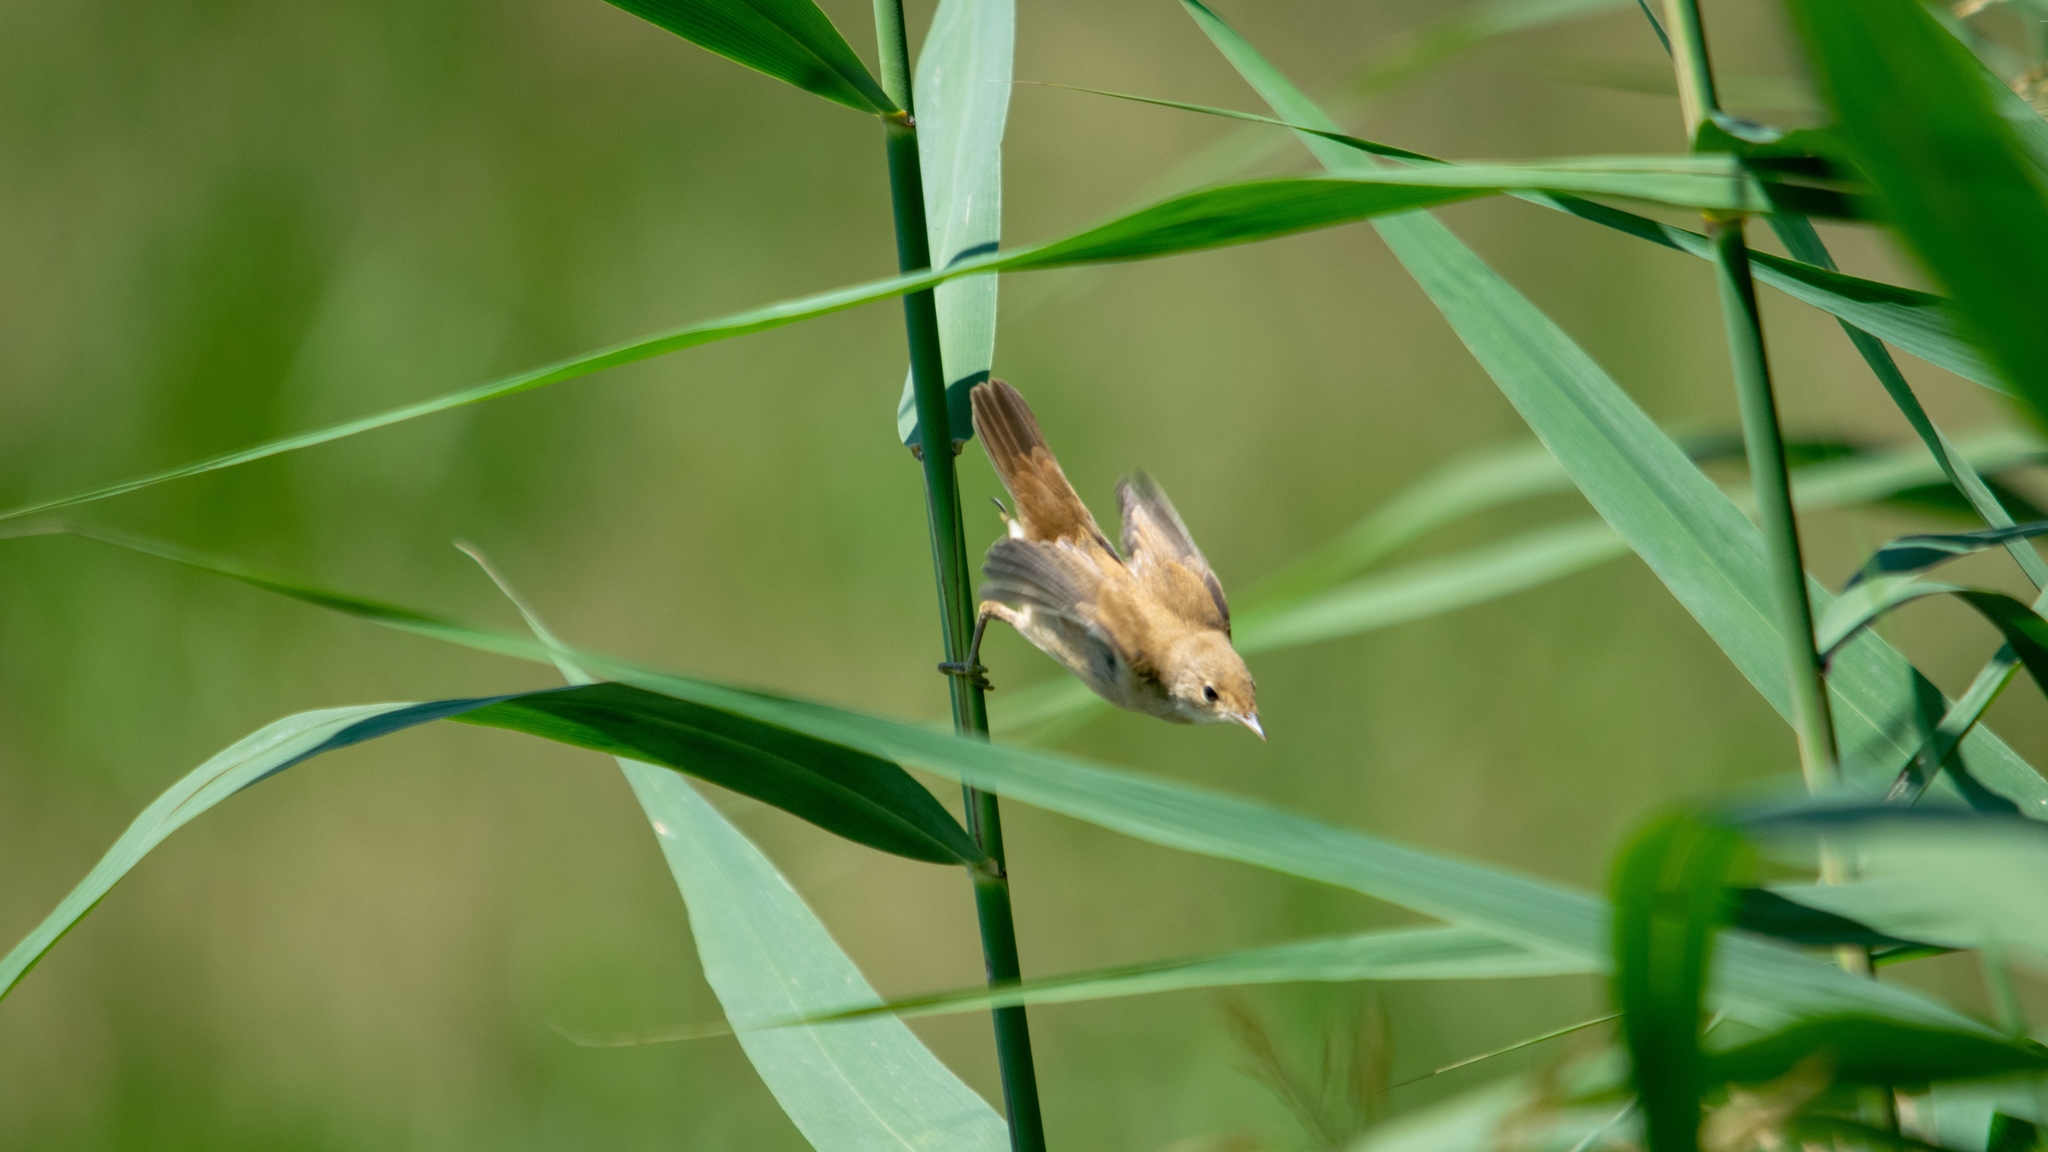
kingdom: Animalia
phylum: Chordata
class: Aves
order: Passeriformes
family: Acrocephalidae
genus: Acrocephalus
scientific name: Acrocephalus scirpaceus
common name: Eurasian reed warbler
